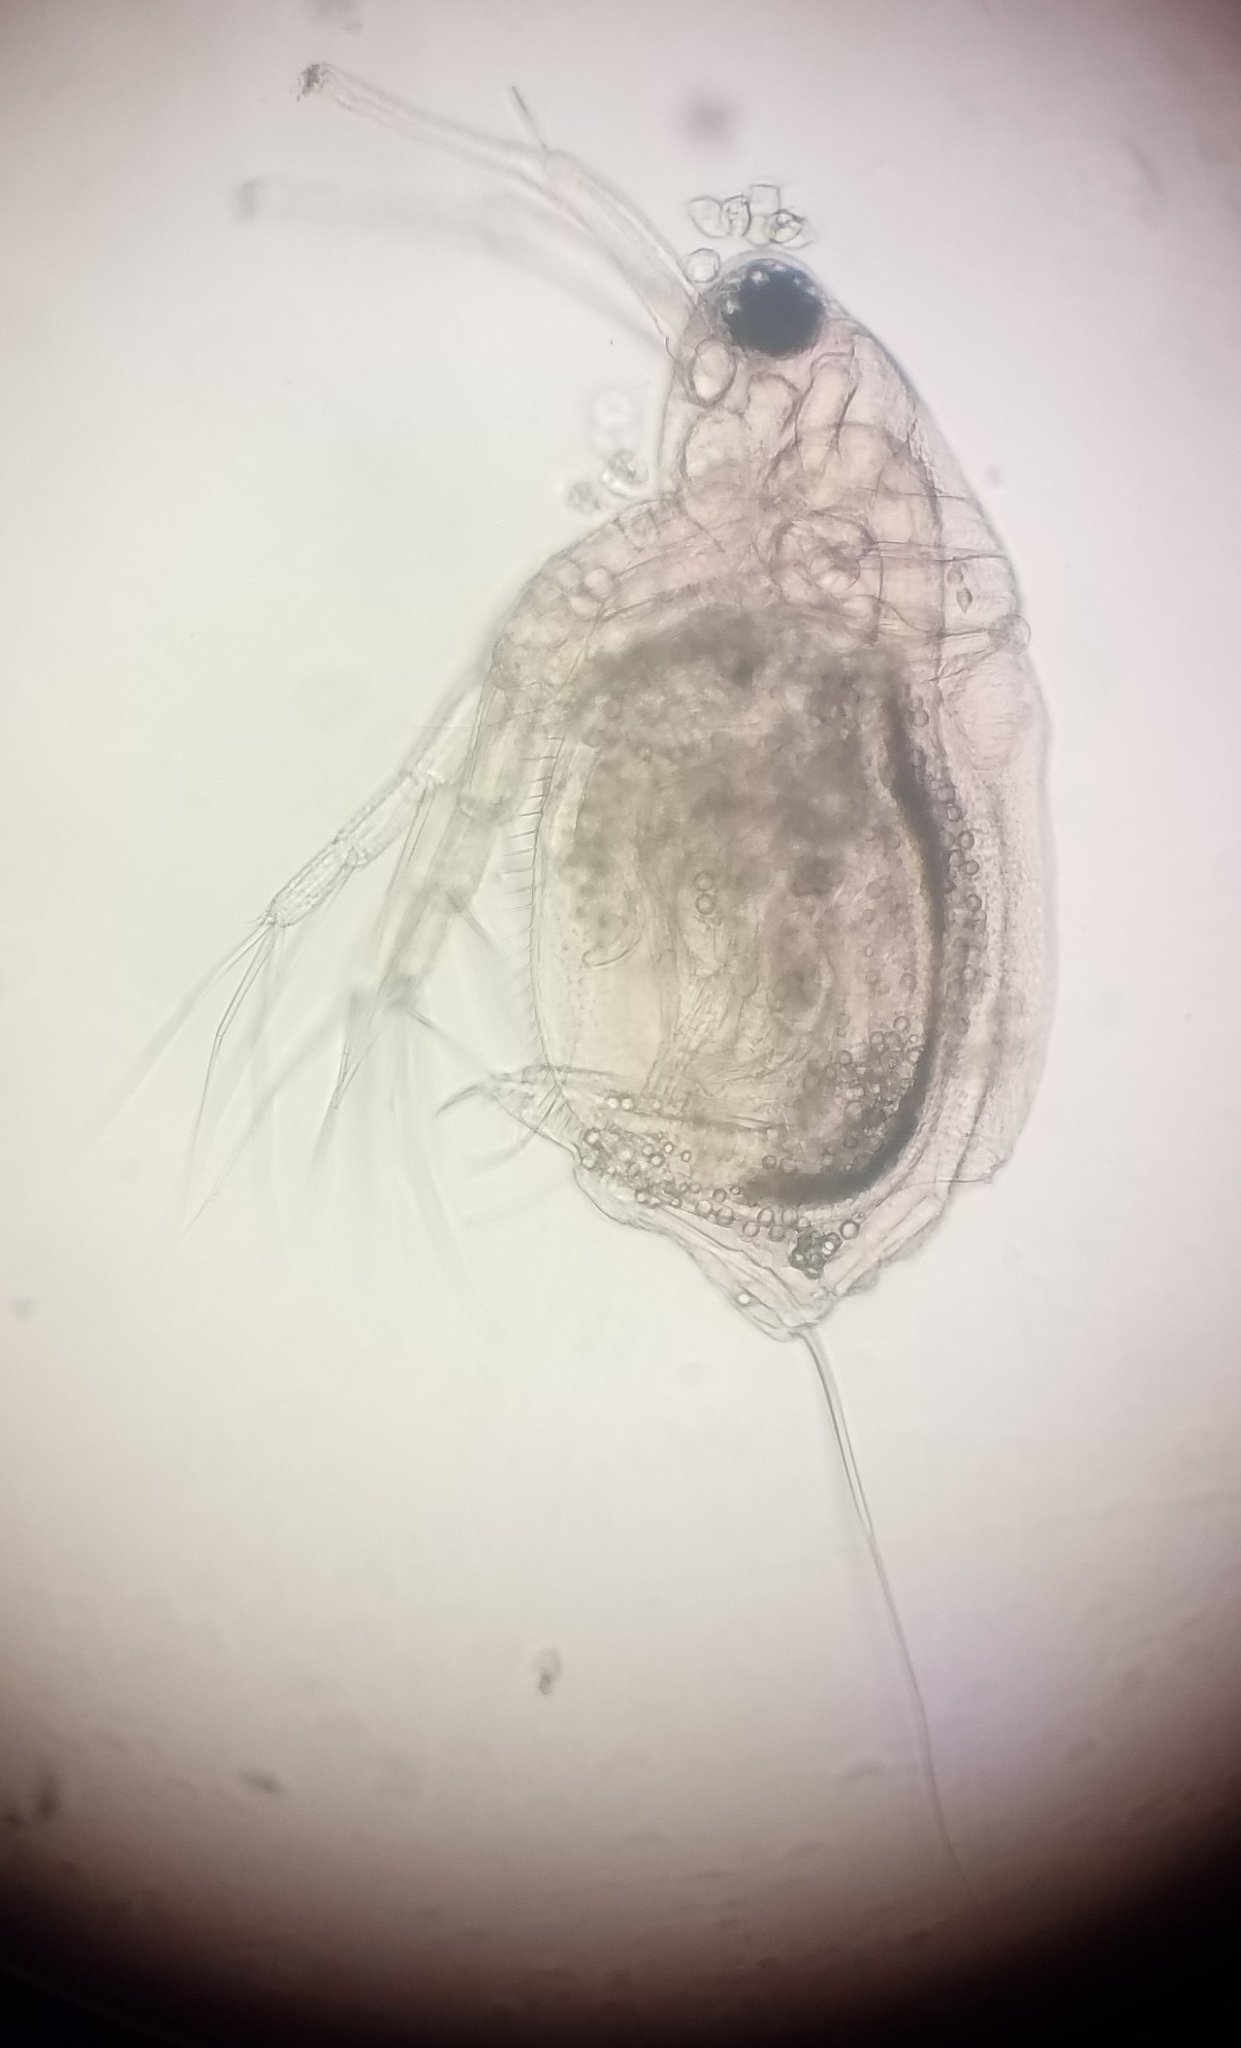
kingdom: Animalia
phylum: Arthropoda
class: Branchiopoda
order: Diplostraca
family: Moinidae
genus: Moina
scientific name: Moina brachiata
